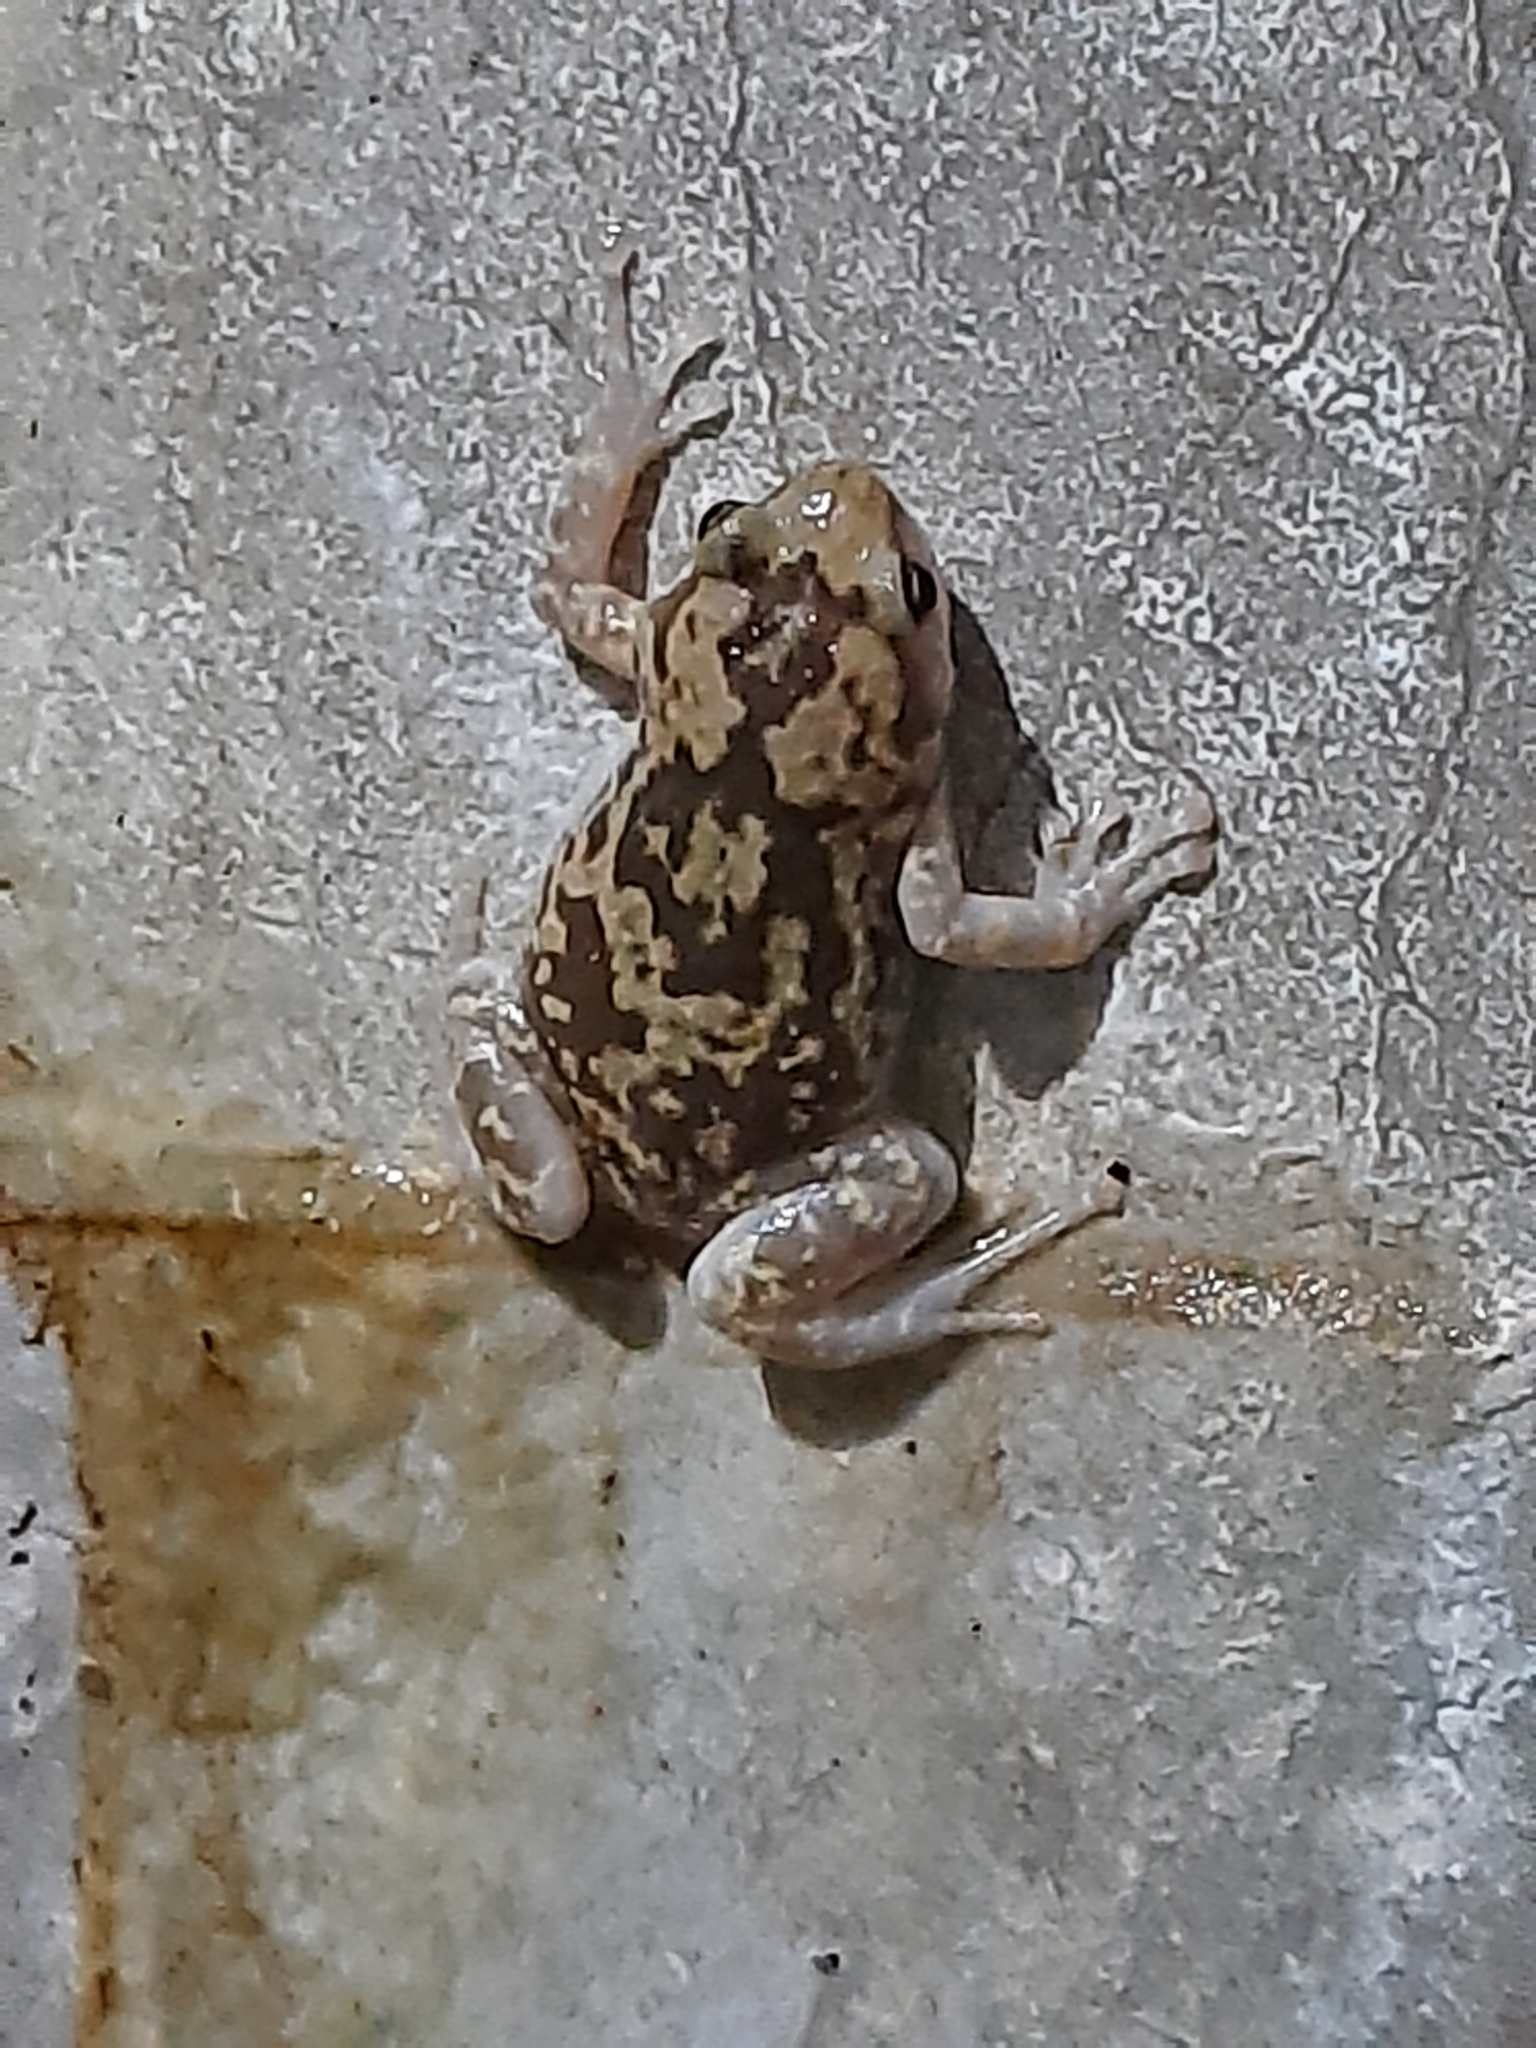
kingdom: Animalia
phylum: Chordata
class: Amphibia
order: Anura
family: Microhylidae
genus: Uperodon
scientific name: Uperodon variegatus
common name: Eluru dot frog
